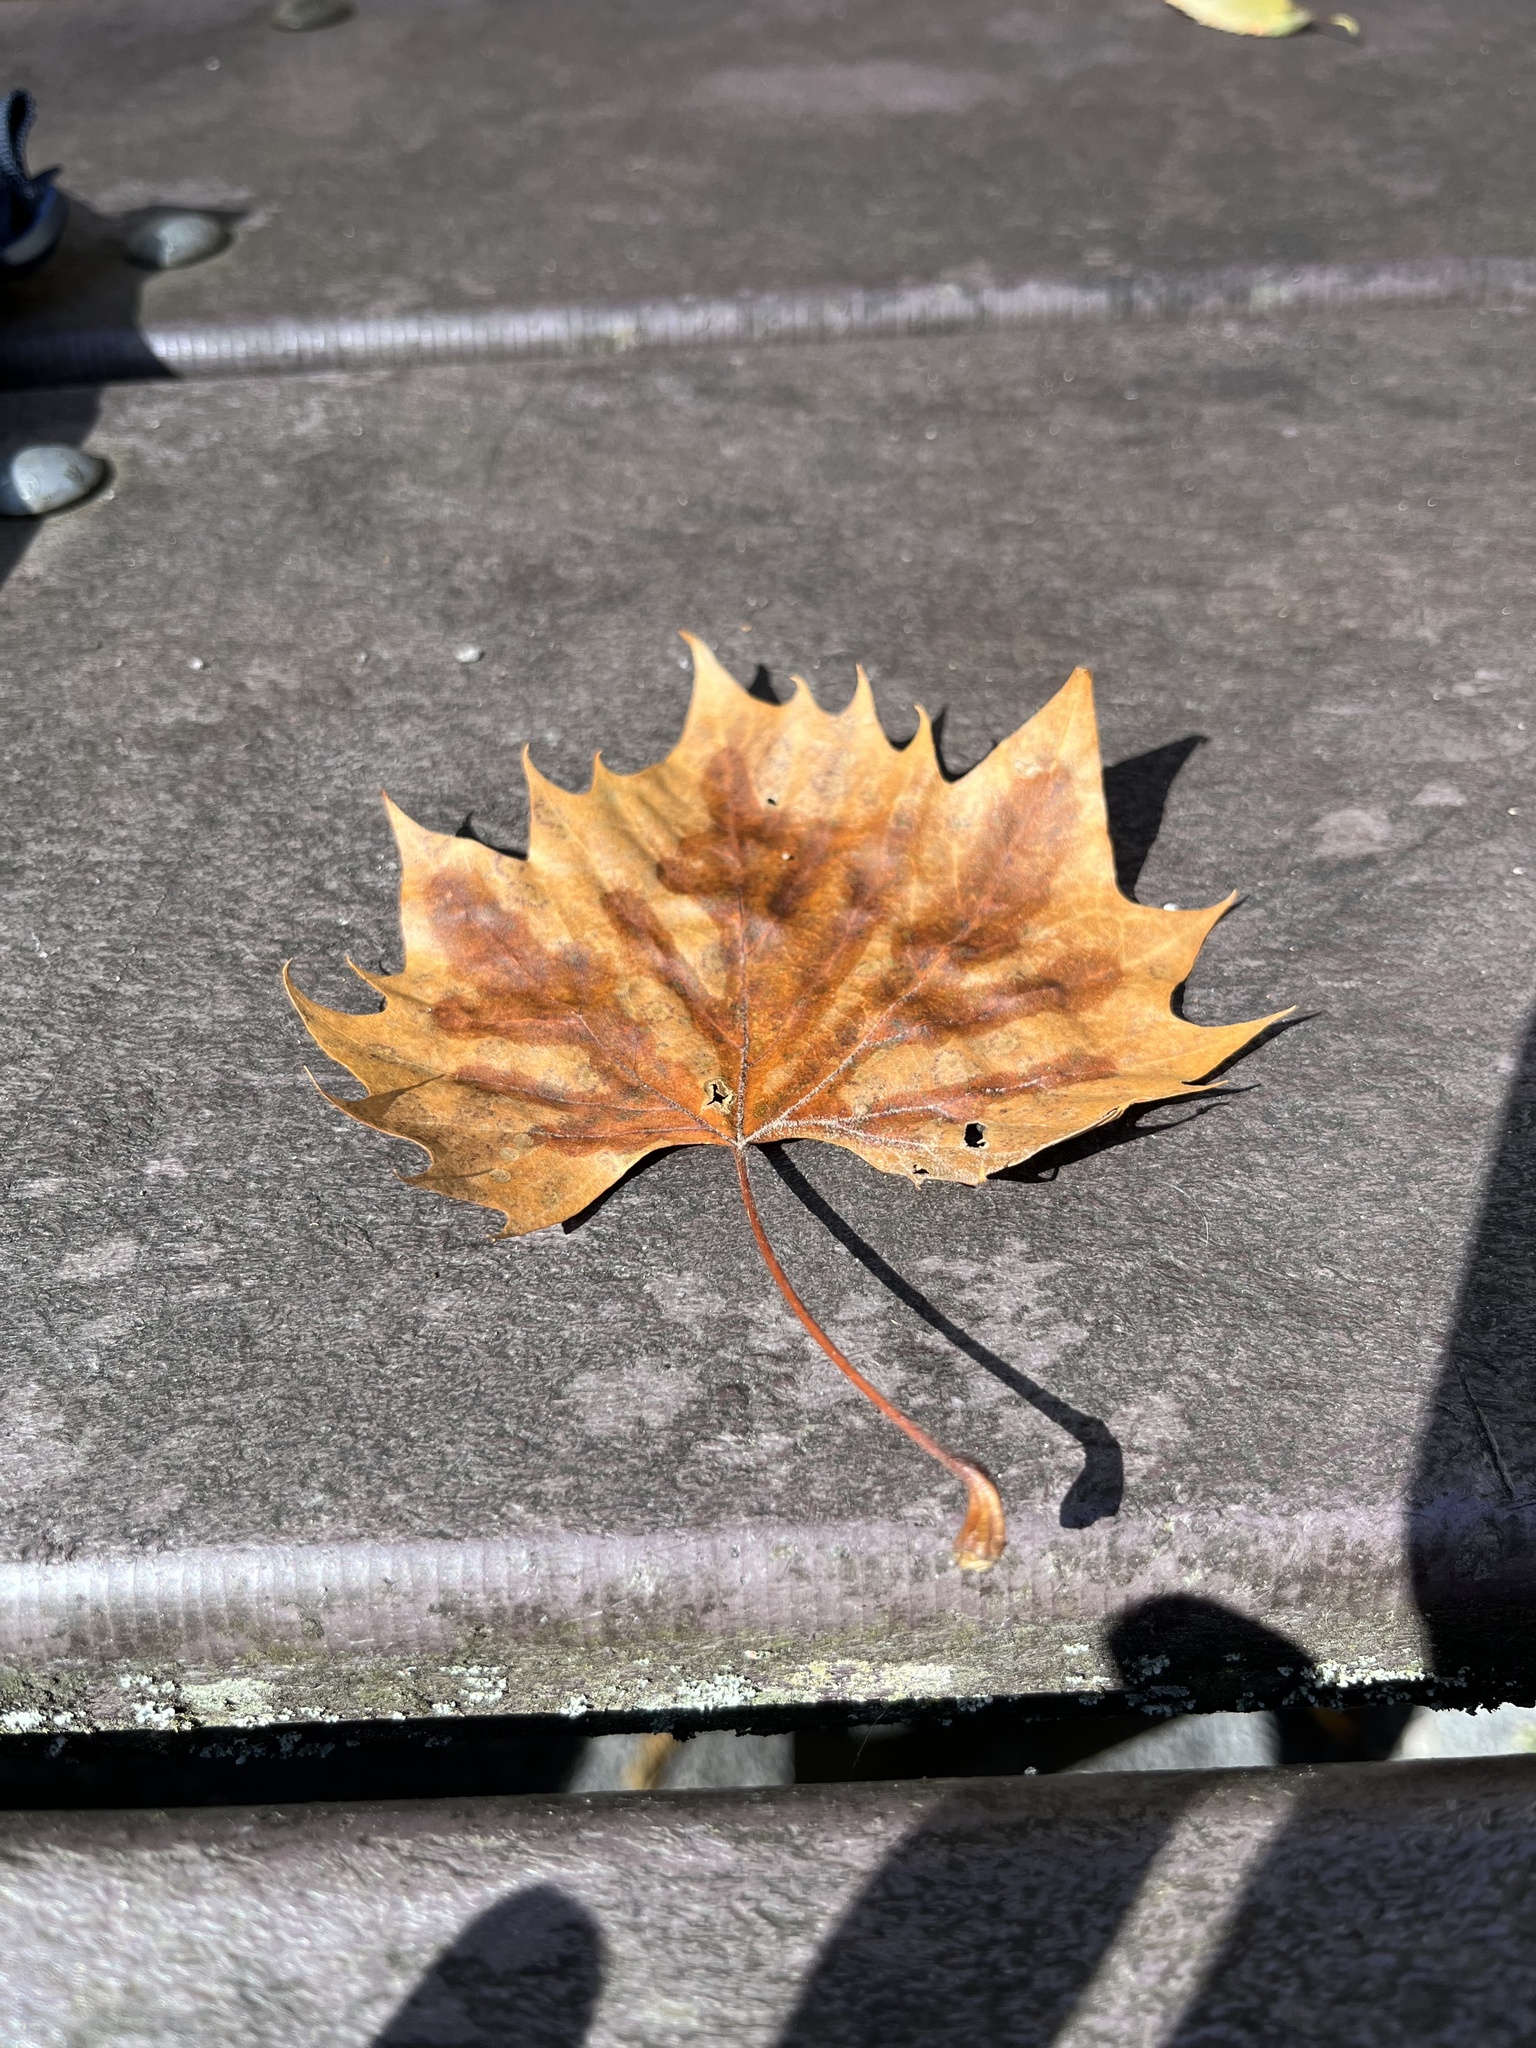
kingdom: Plantae
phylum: Tracheophyta
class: Magnoliopsida
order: Proteales
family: Platanaceae
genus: Platanus
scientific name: Platanus occidentalis
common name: American sycamore
